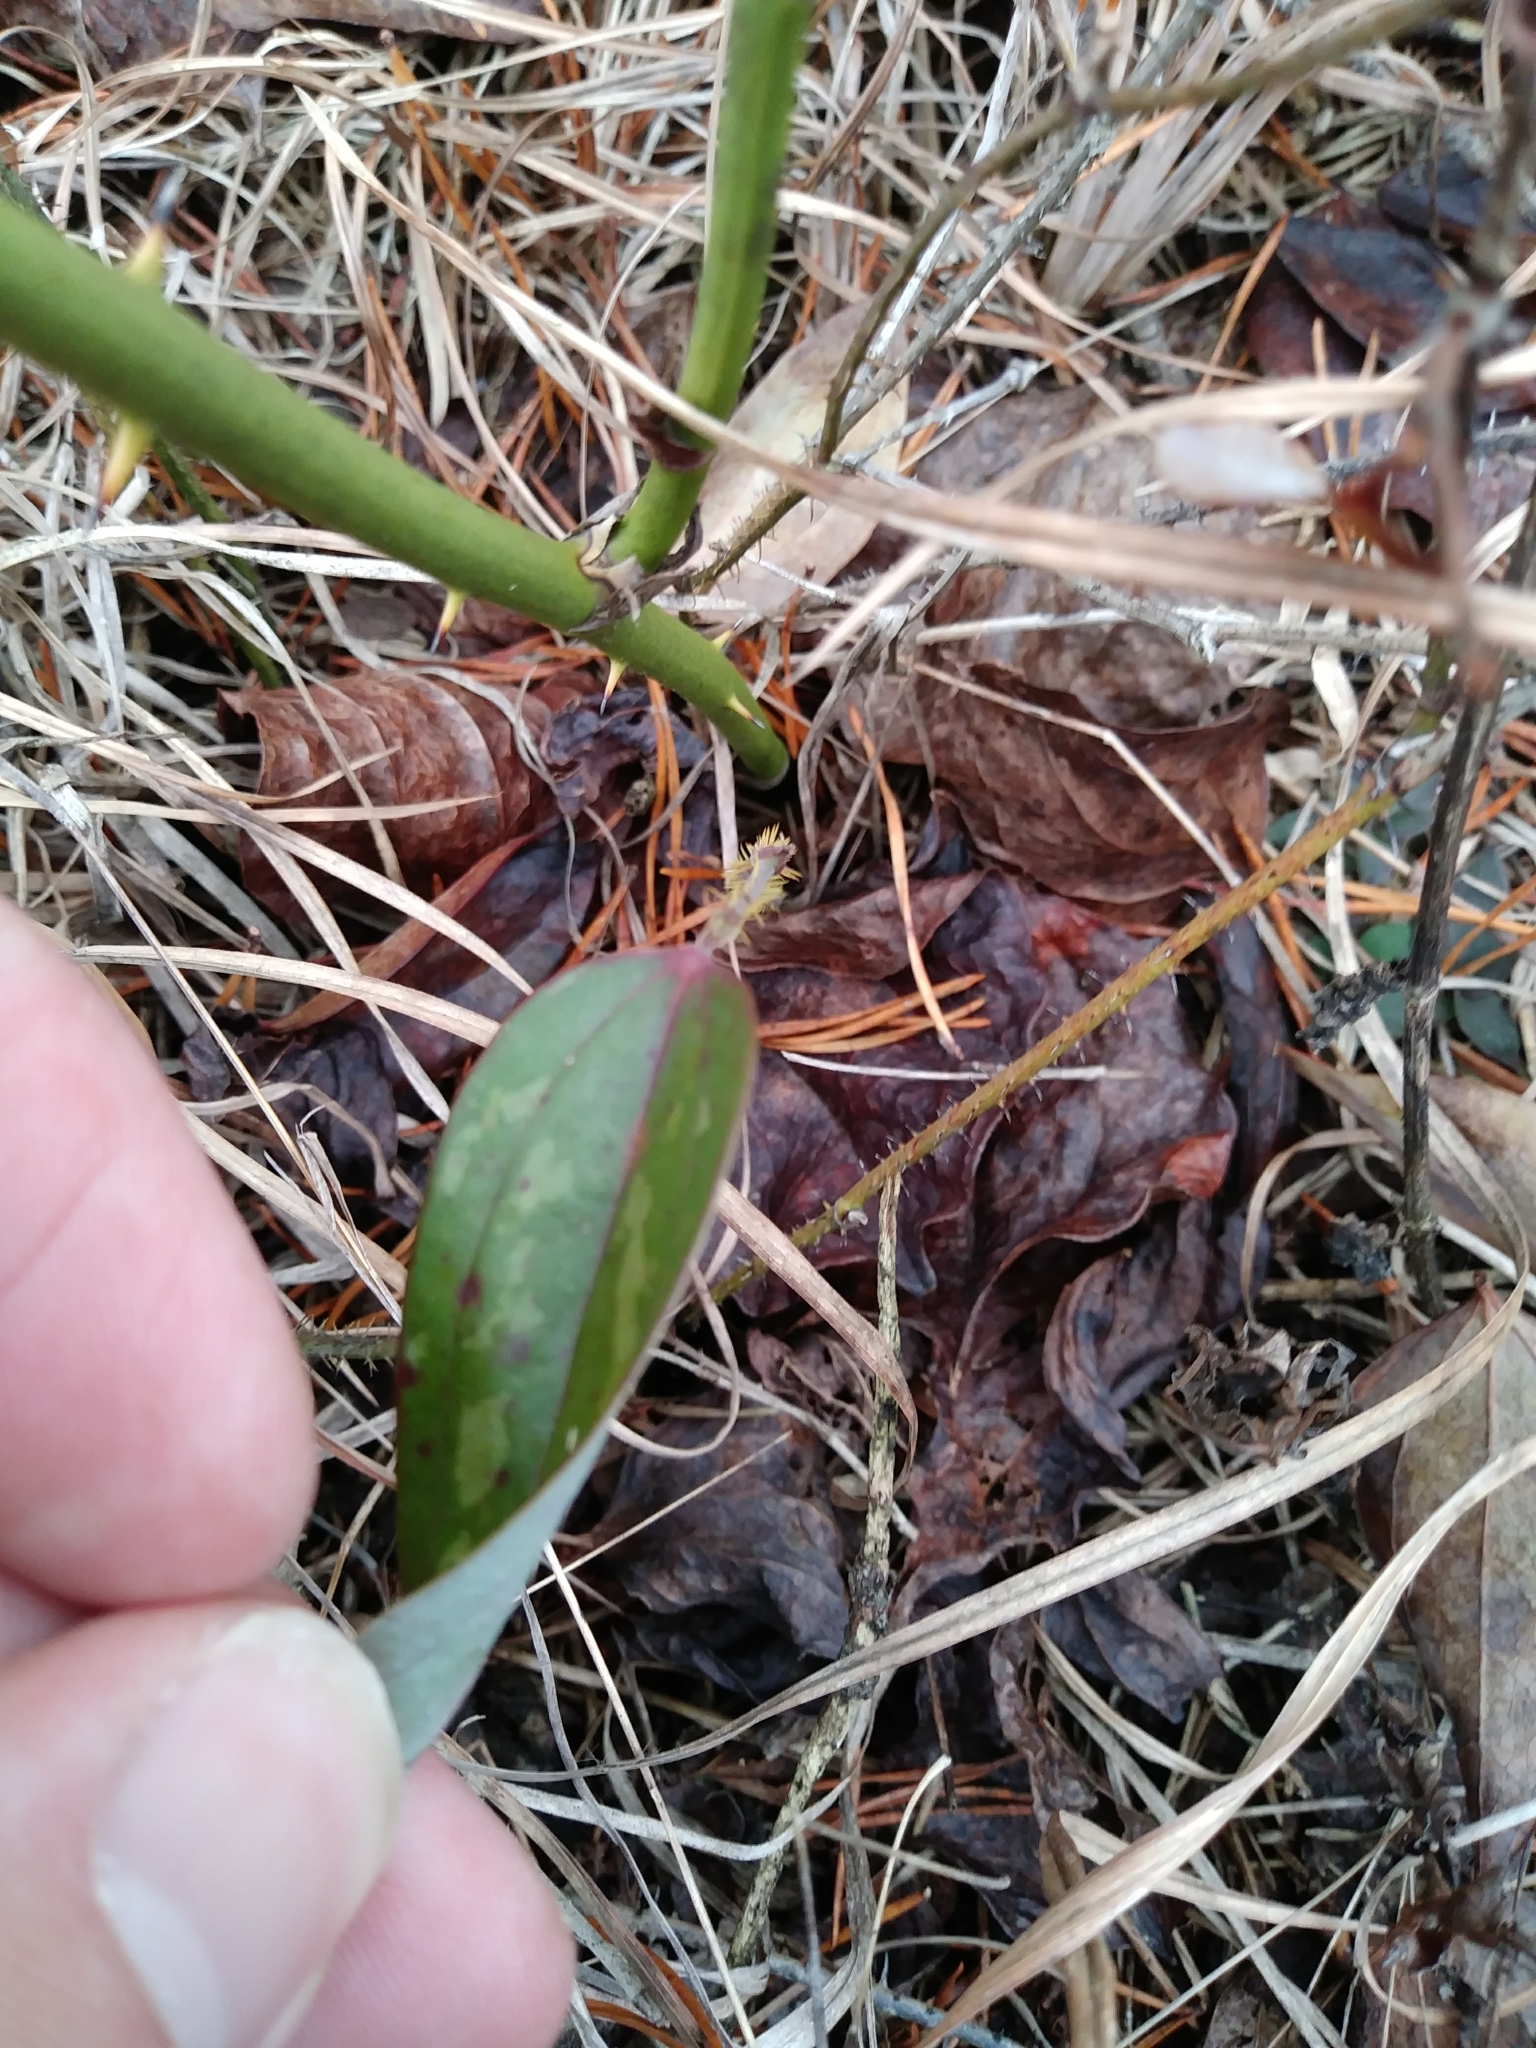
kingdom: Plantae
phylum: Tracheophyta
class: Liliopsida
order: Liliales
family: Smilacaceae
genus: Smilax
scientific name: Smilax glauca
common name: Cat greenbrier
